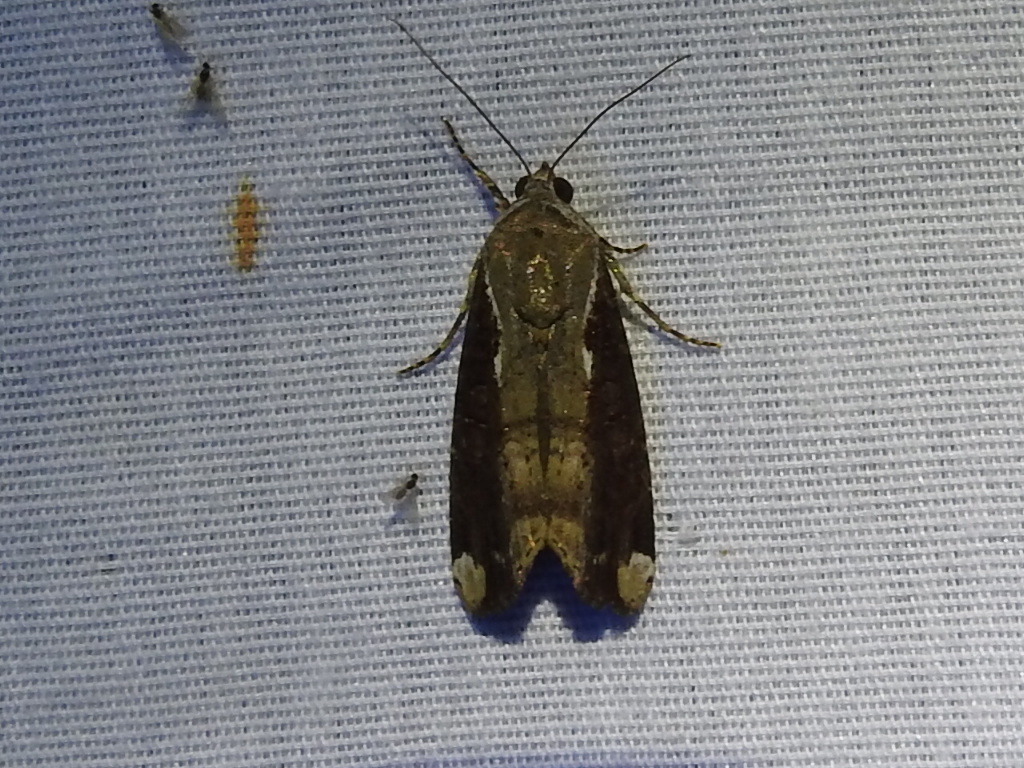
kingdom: Animalia
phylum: Arthropoda
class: Insecta
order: Lepidoptera
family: Noctuidae
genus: Magusa
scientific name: Magusa divaricata
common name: Orb narrow-winged moth
